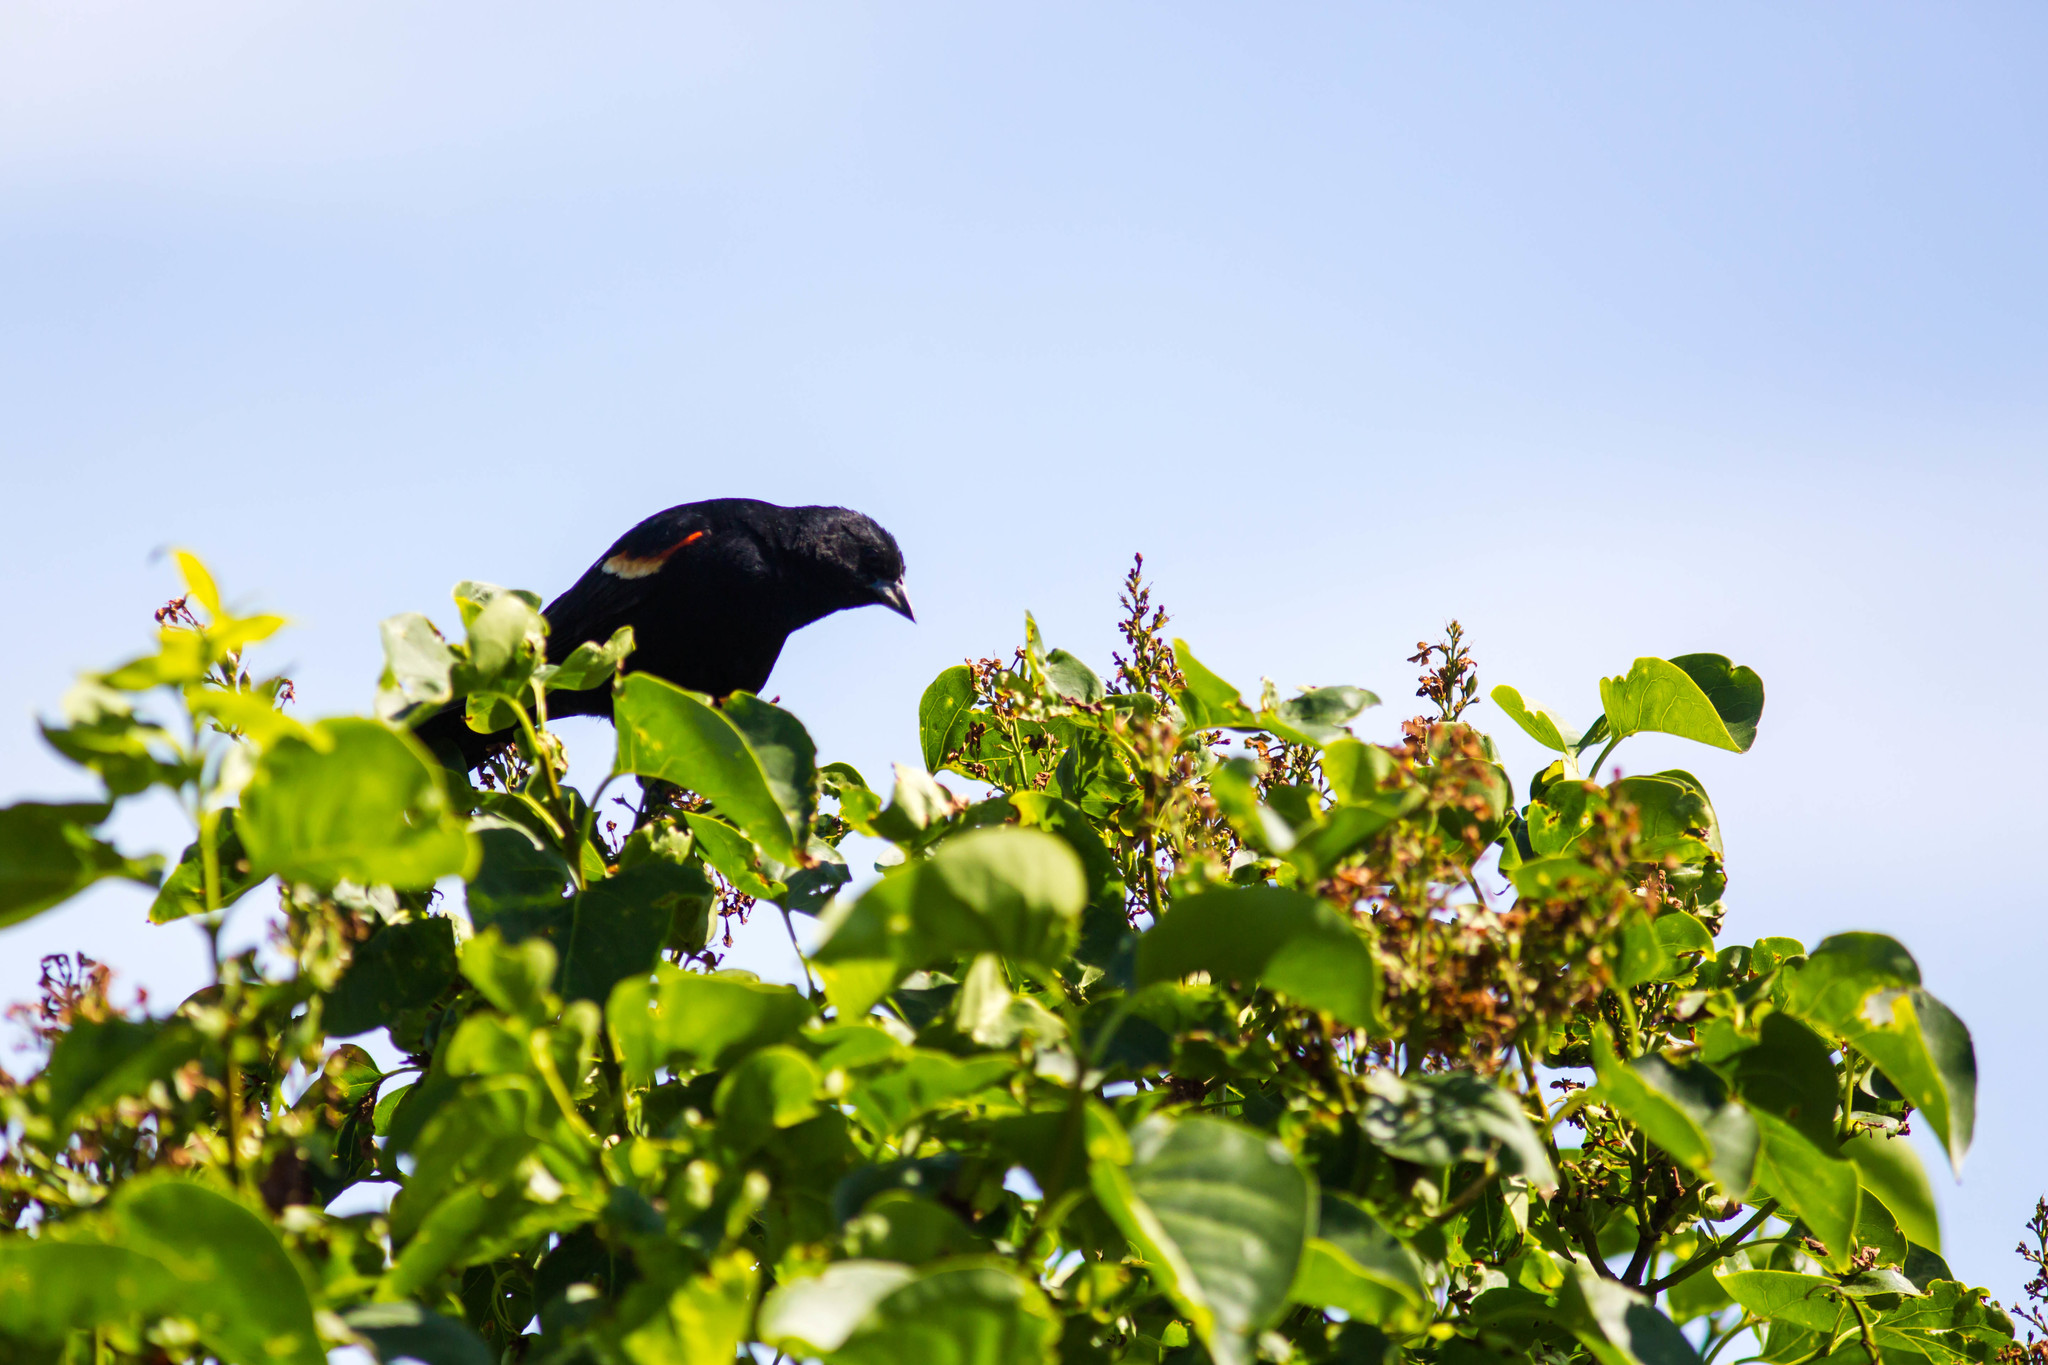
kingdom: Animalia
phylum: Chordata
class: Aves
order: Passeriformes
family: Icteridae
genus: Agelaius
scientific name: Agelaius phoeniceus
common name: Red-winged blackbird
